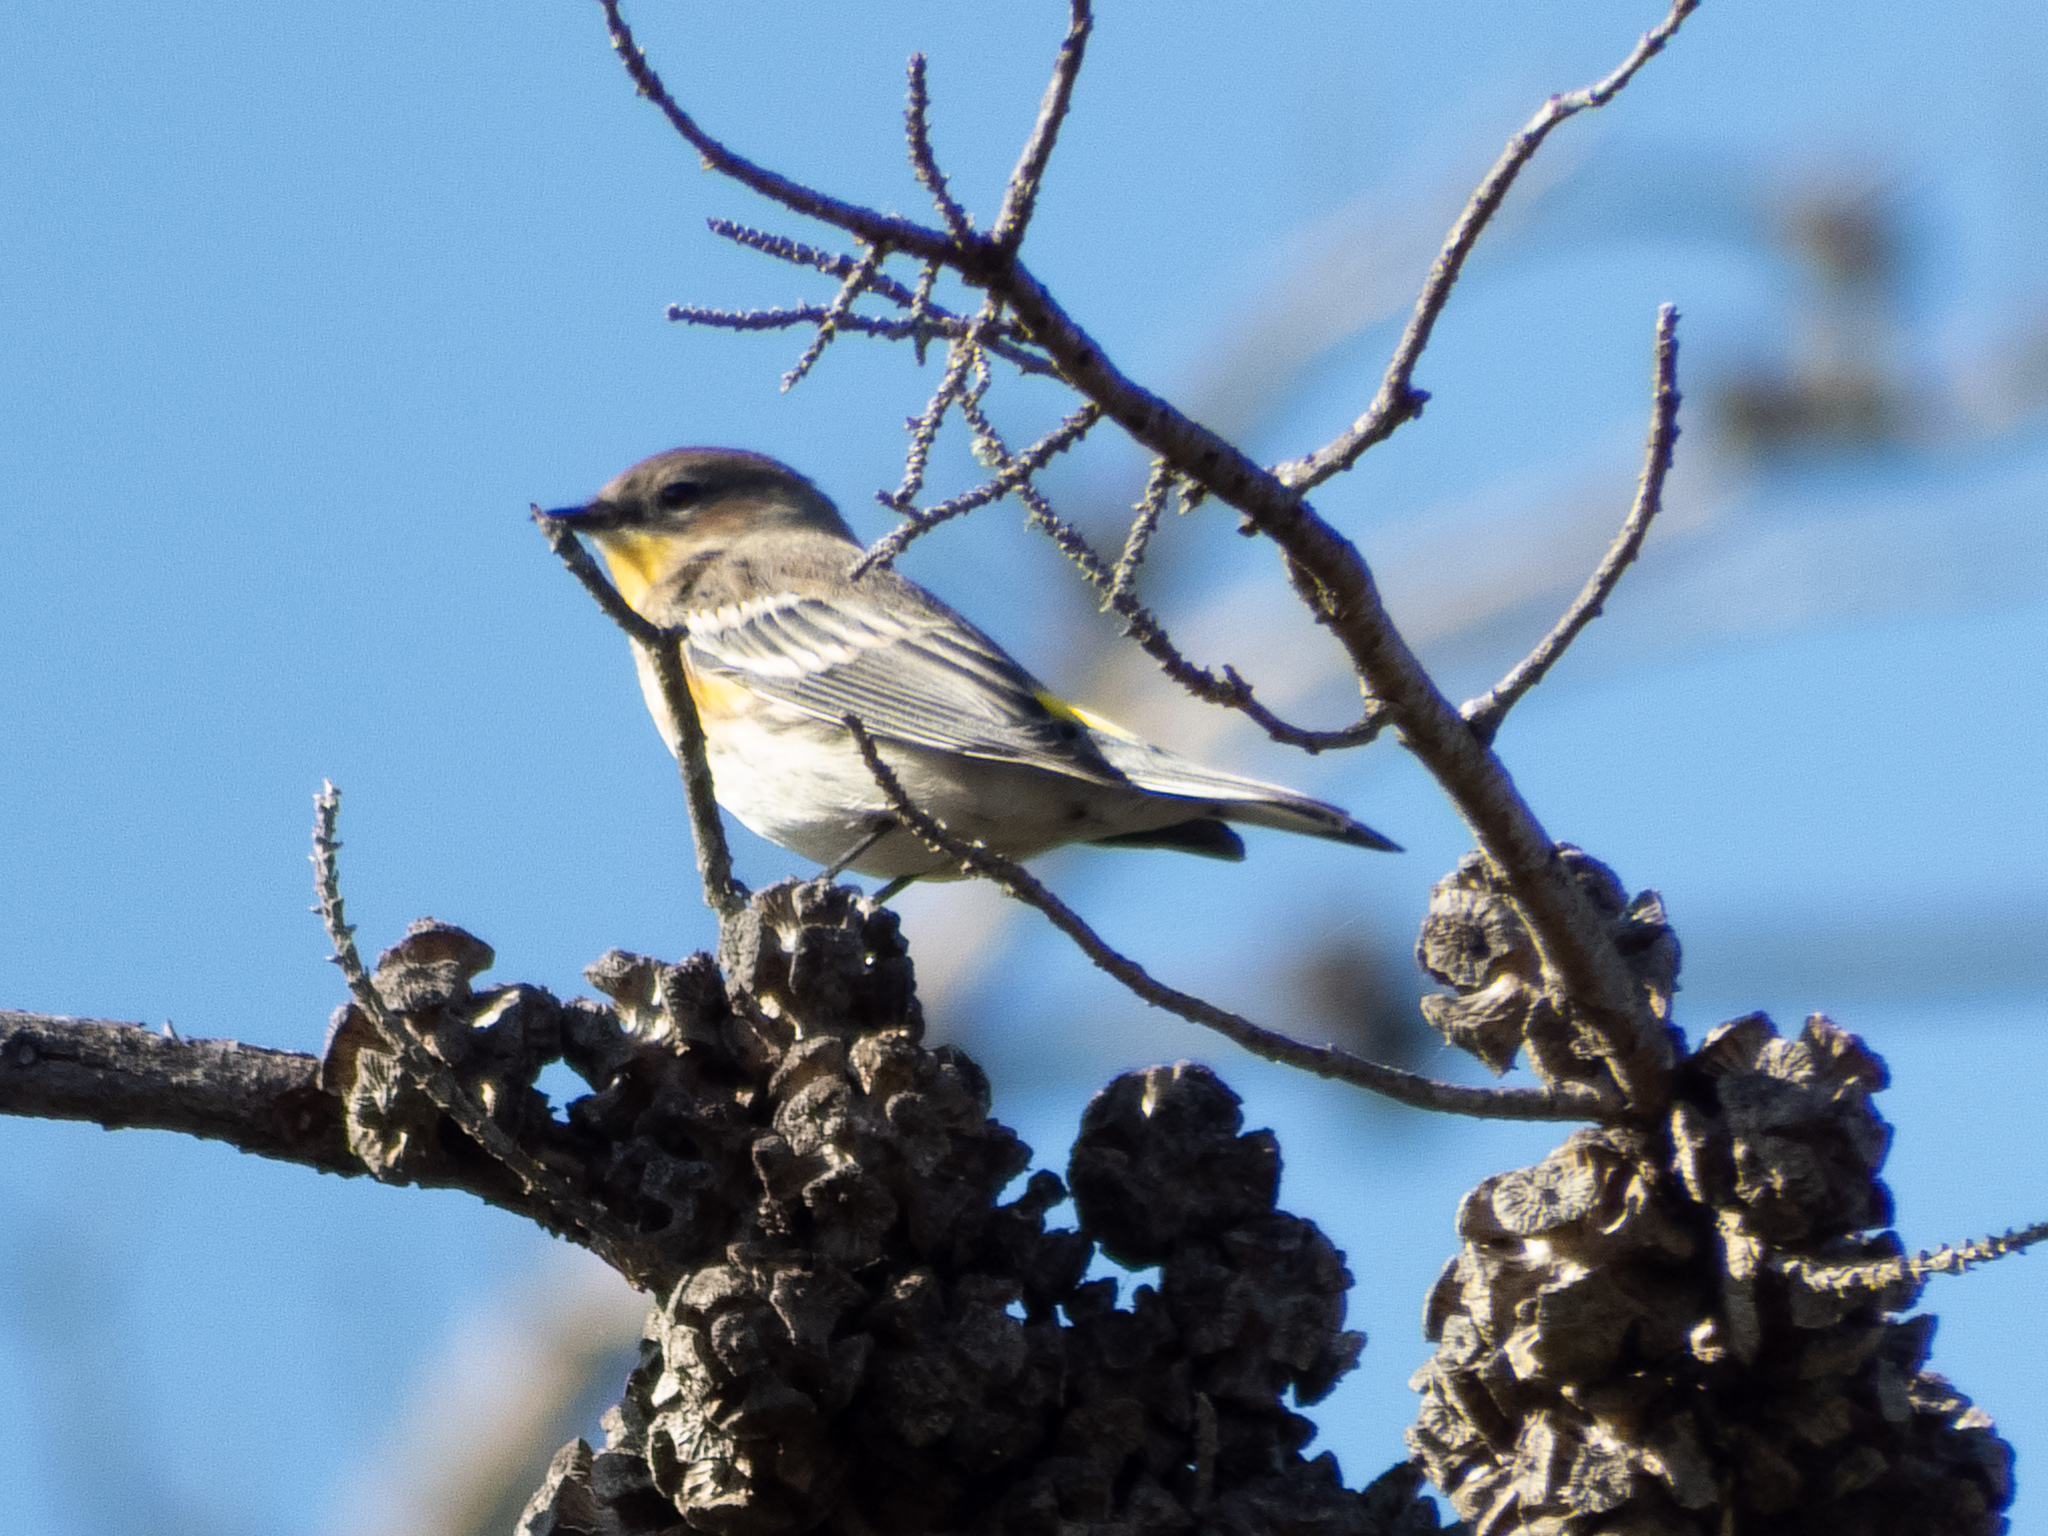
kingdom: Animalia
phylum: Chordata
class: Aves
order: Passeriformes
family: Parulidae
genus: Setophaga
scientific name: Setophaga coronata
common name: Myrtle warbler
